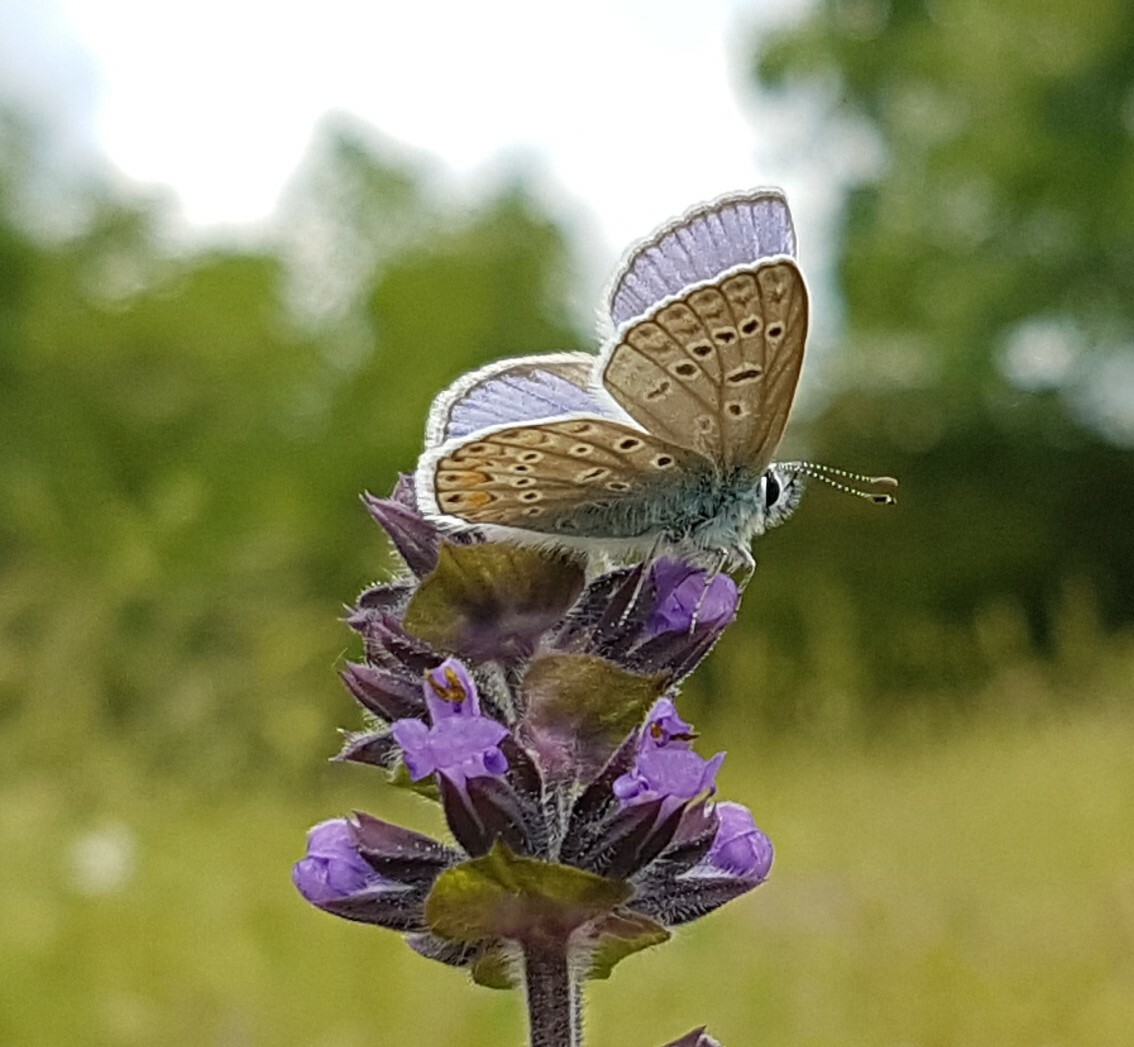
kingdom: Animalia
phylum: Arthropoda
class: Insecta
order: Lepidoptera
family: Lycaenidae
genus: Polyommatus
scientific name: Polyommatus icarus
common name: Common blue
